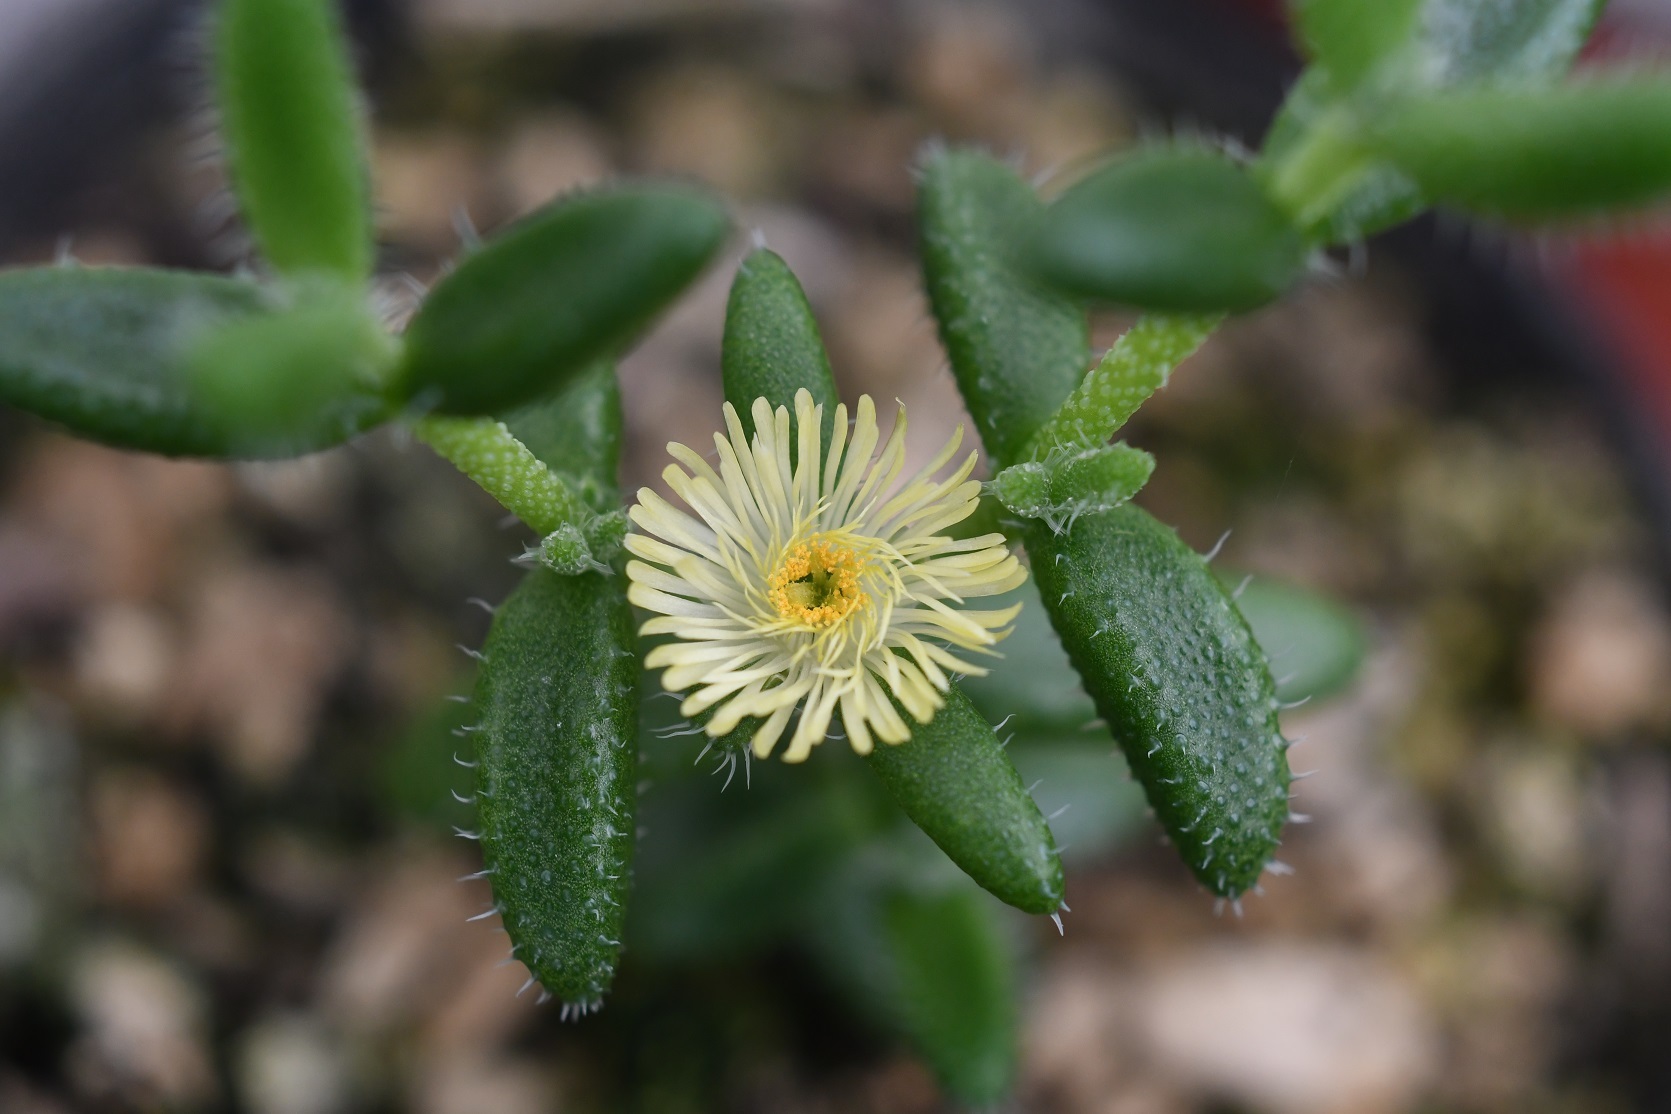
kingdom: Plantae
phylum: Tracheophyta
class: Magnoliopsida
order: Caryophyllales
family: Aizoaceae
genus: Delosperma
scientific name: Delosperma echinatum
